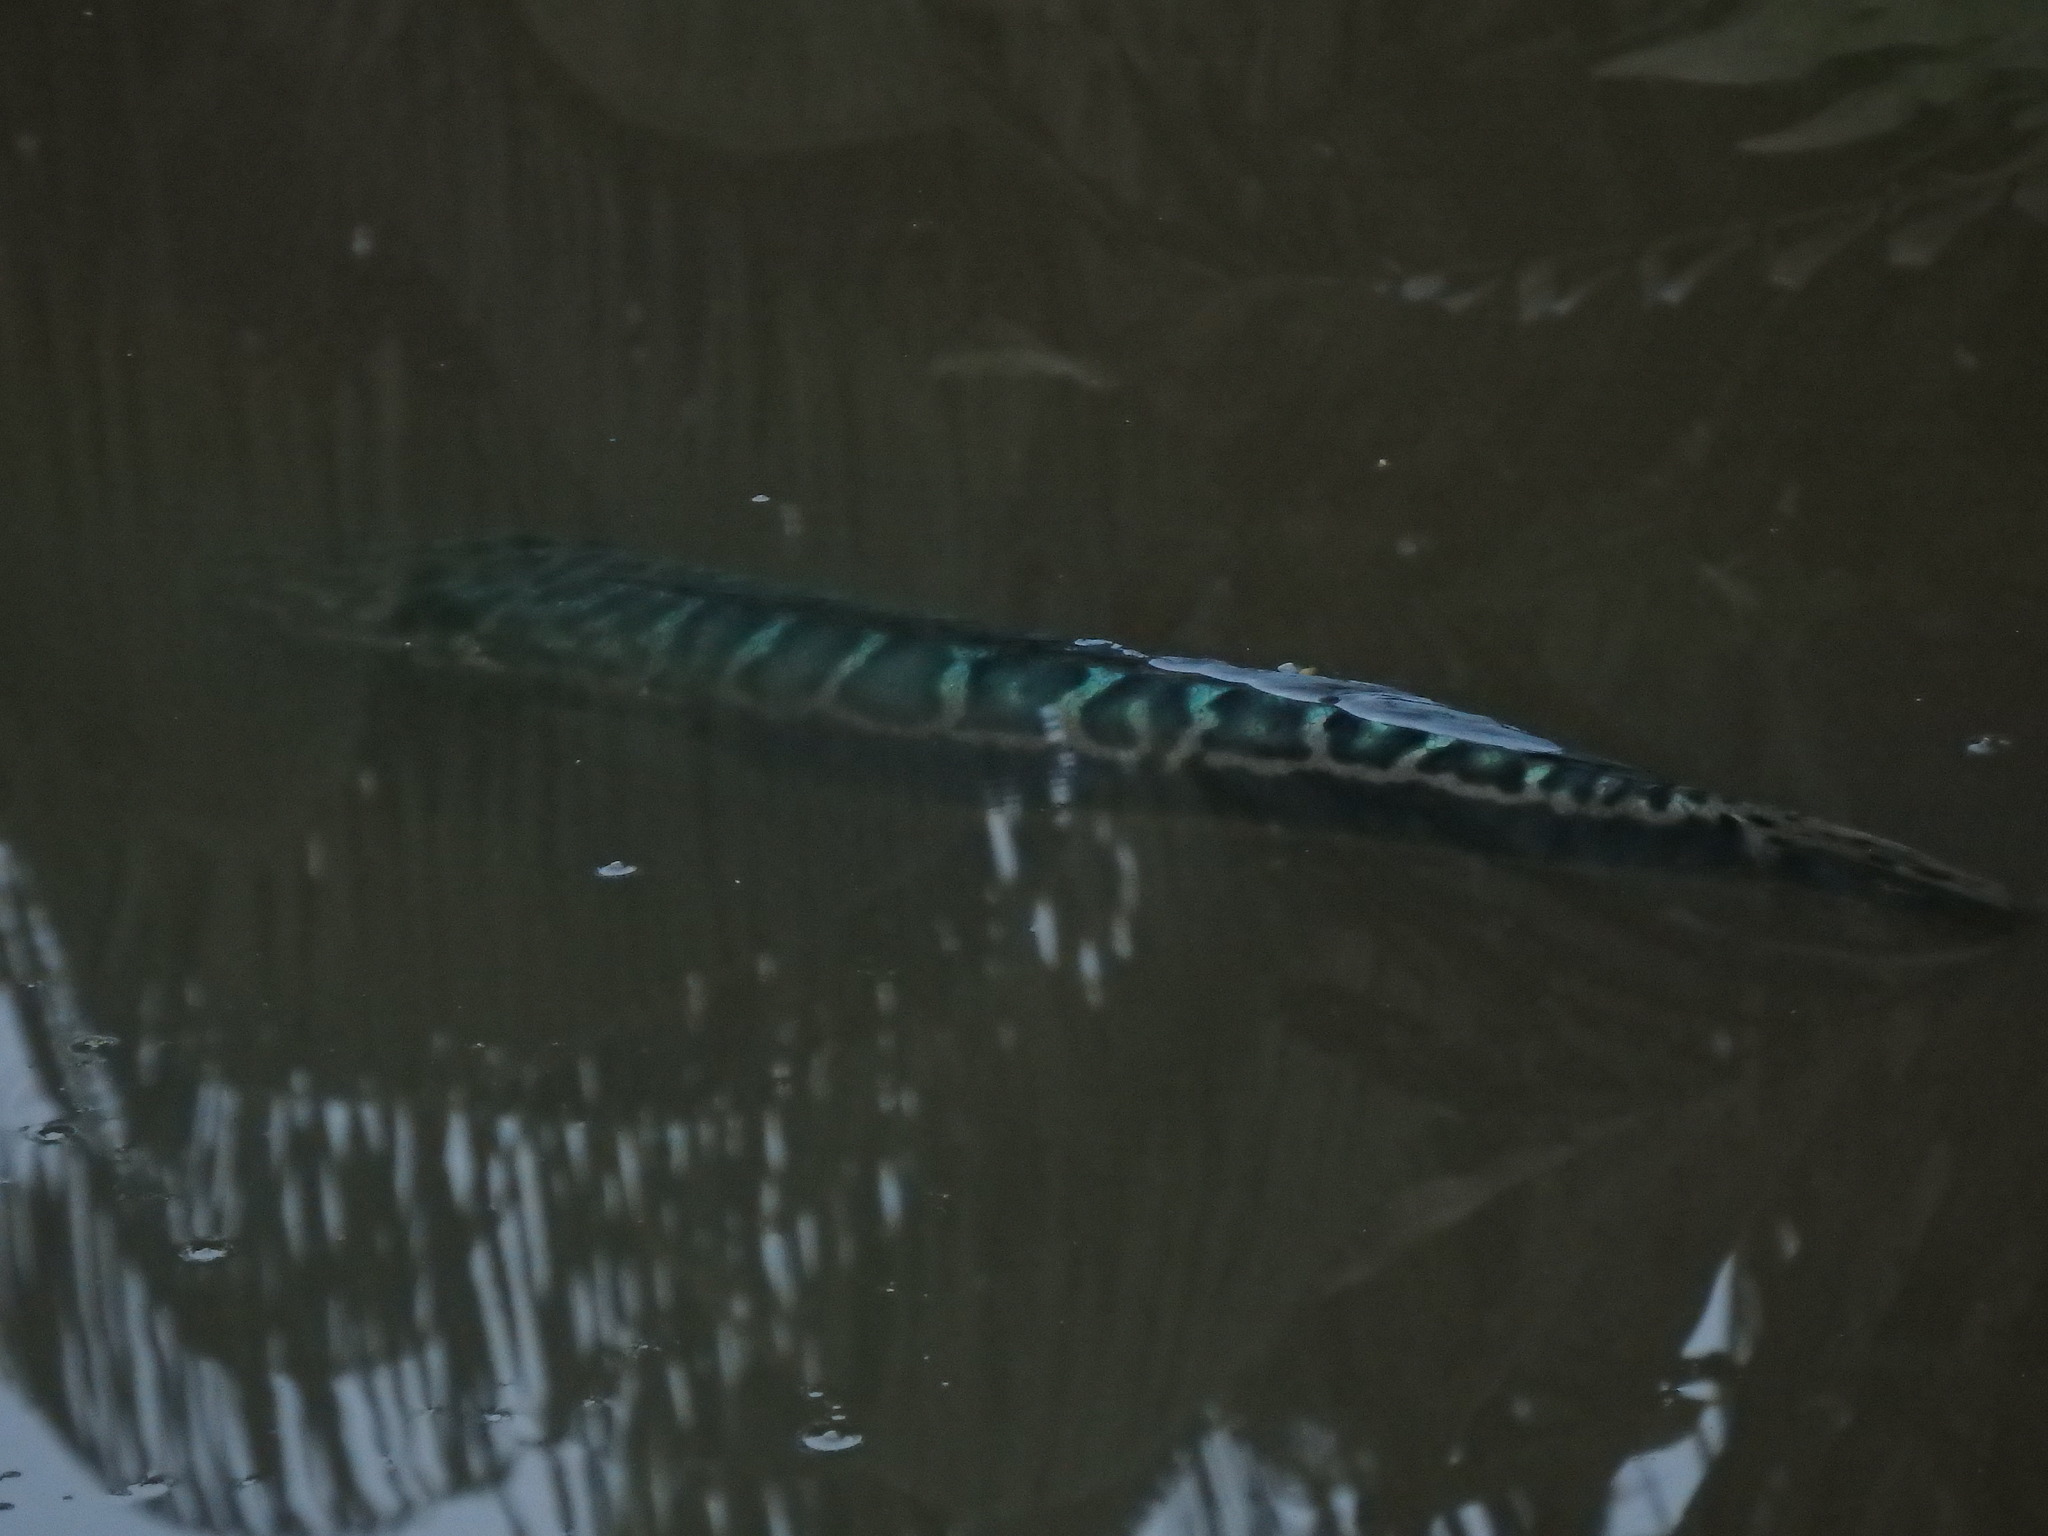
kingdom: Animalia
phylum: Chordata
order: Perciformes
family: Channidae
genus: Channa
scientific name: Channa micropeltes
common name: Giant snakehead
